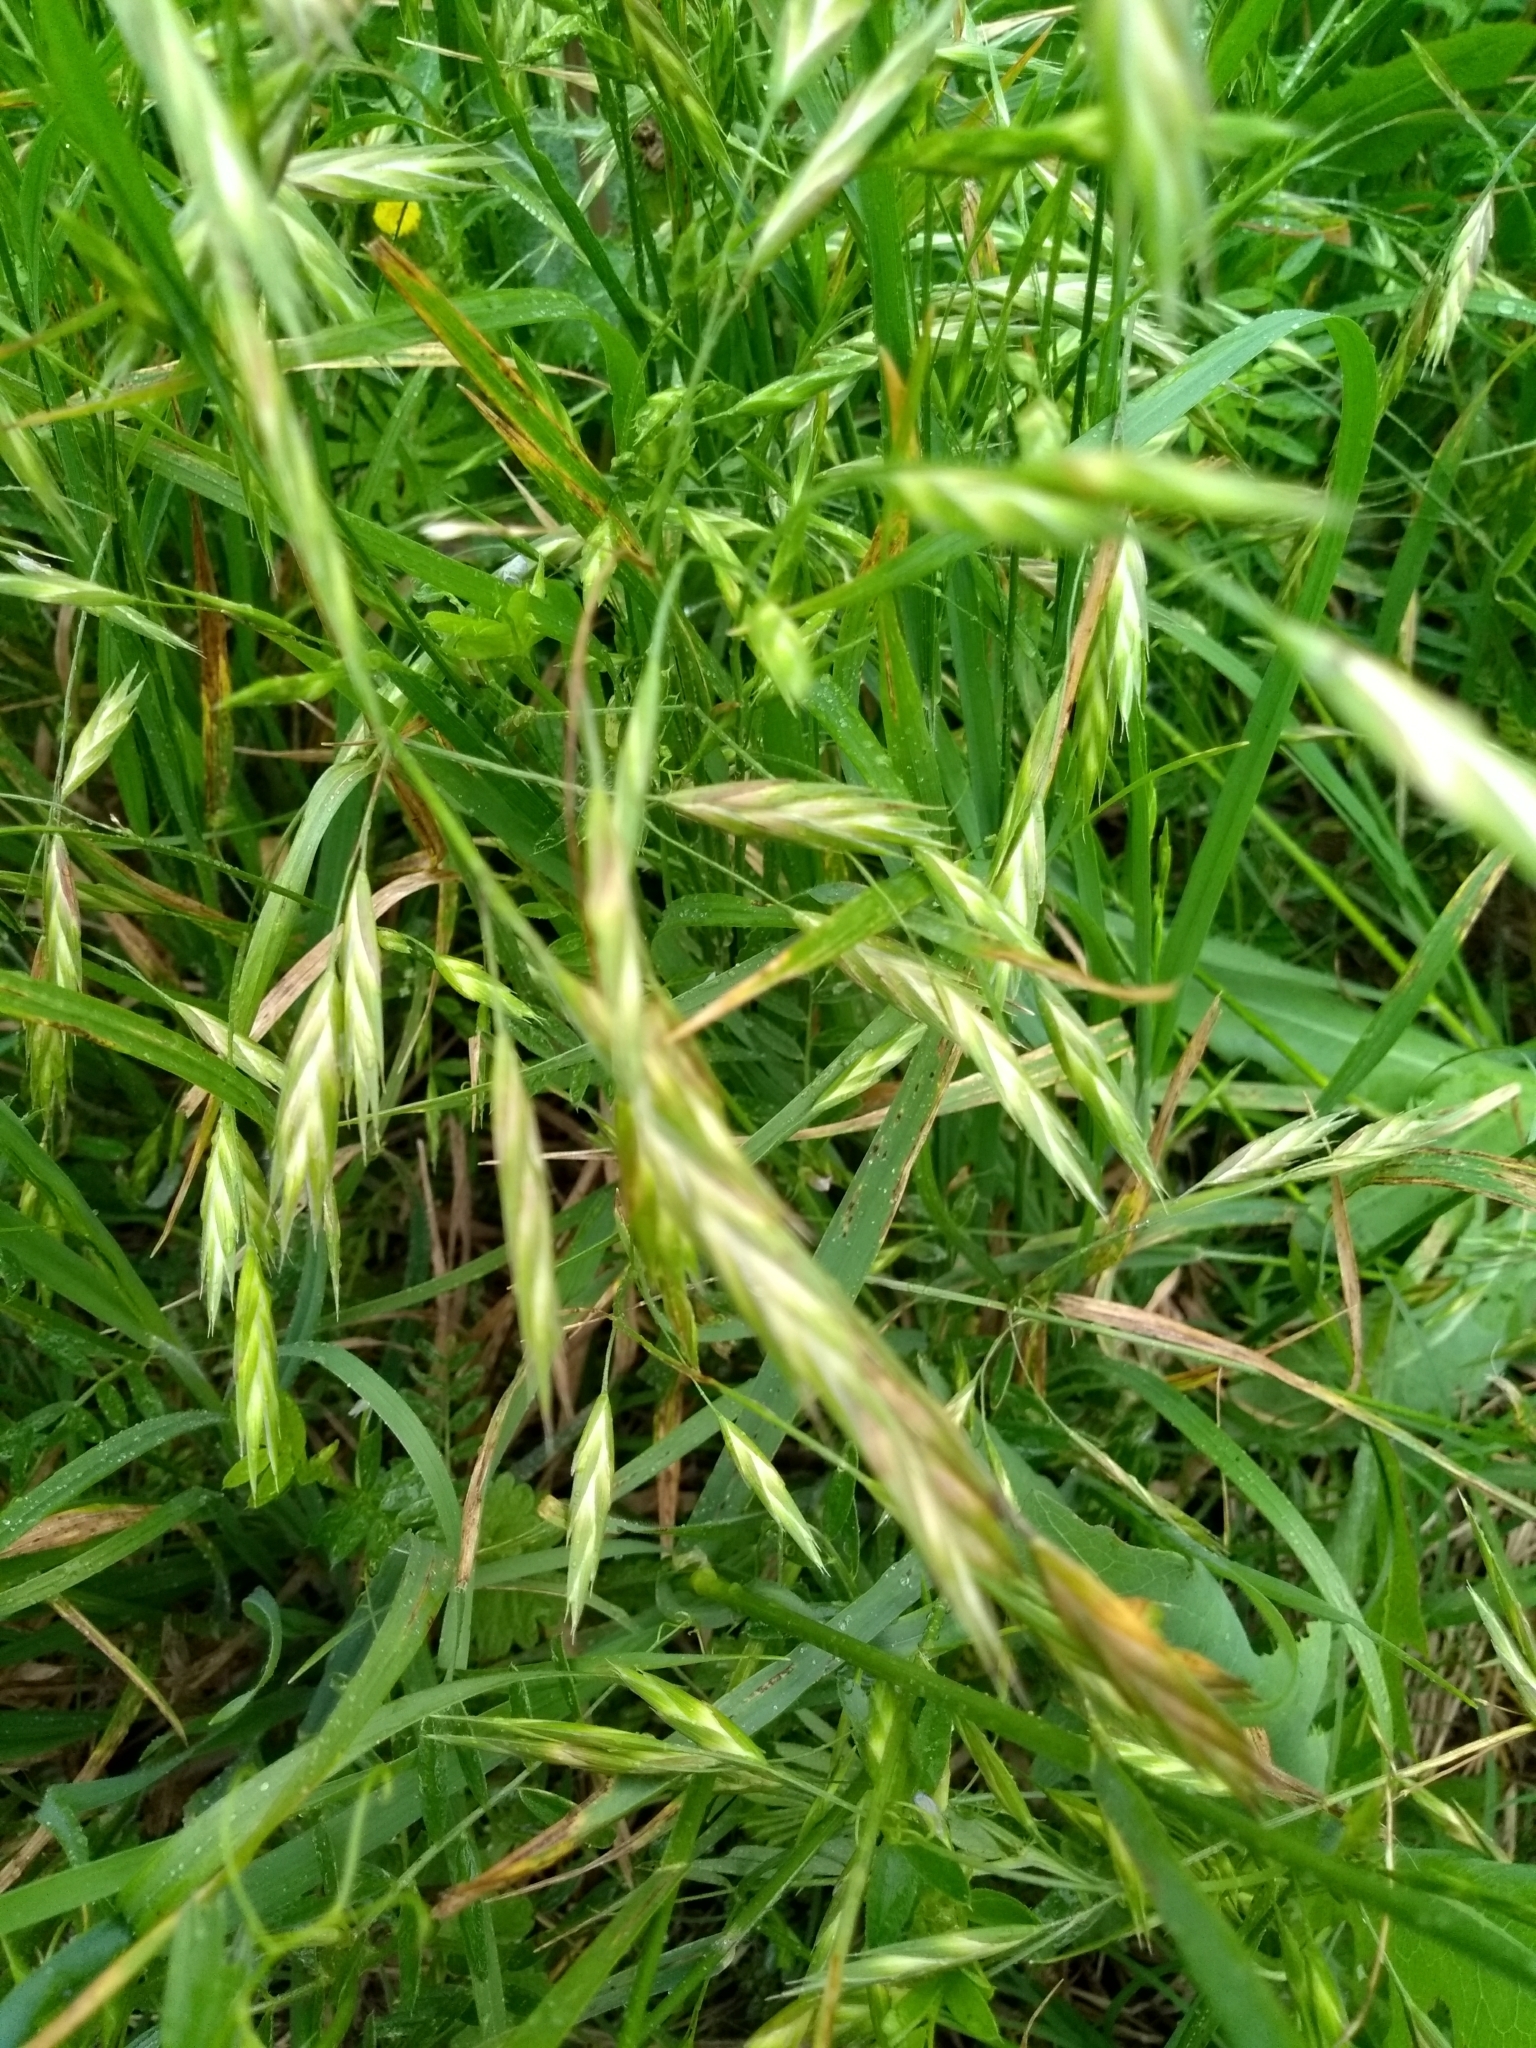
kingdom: Plantae
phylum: Tracheophyta
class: Liliopsida
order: Poales
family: Poaceae
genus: Bromus
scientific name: Bromus catharticus
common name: Rescuegrass
